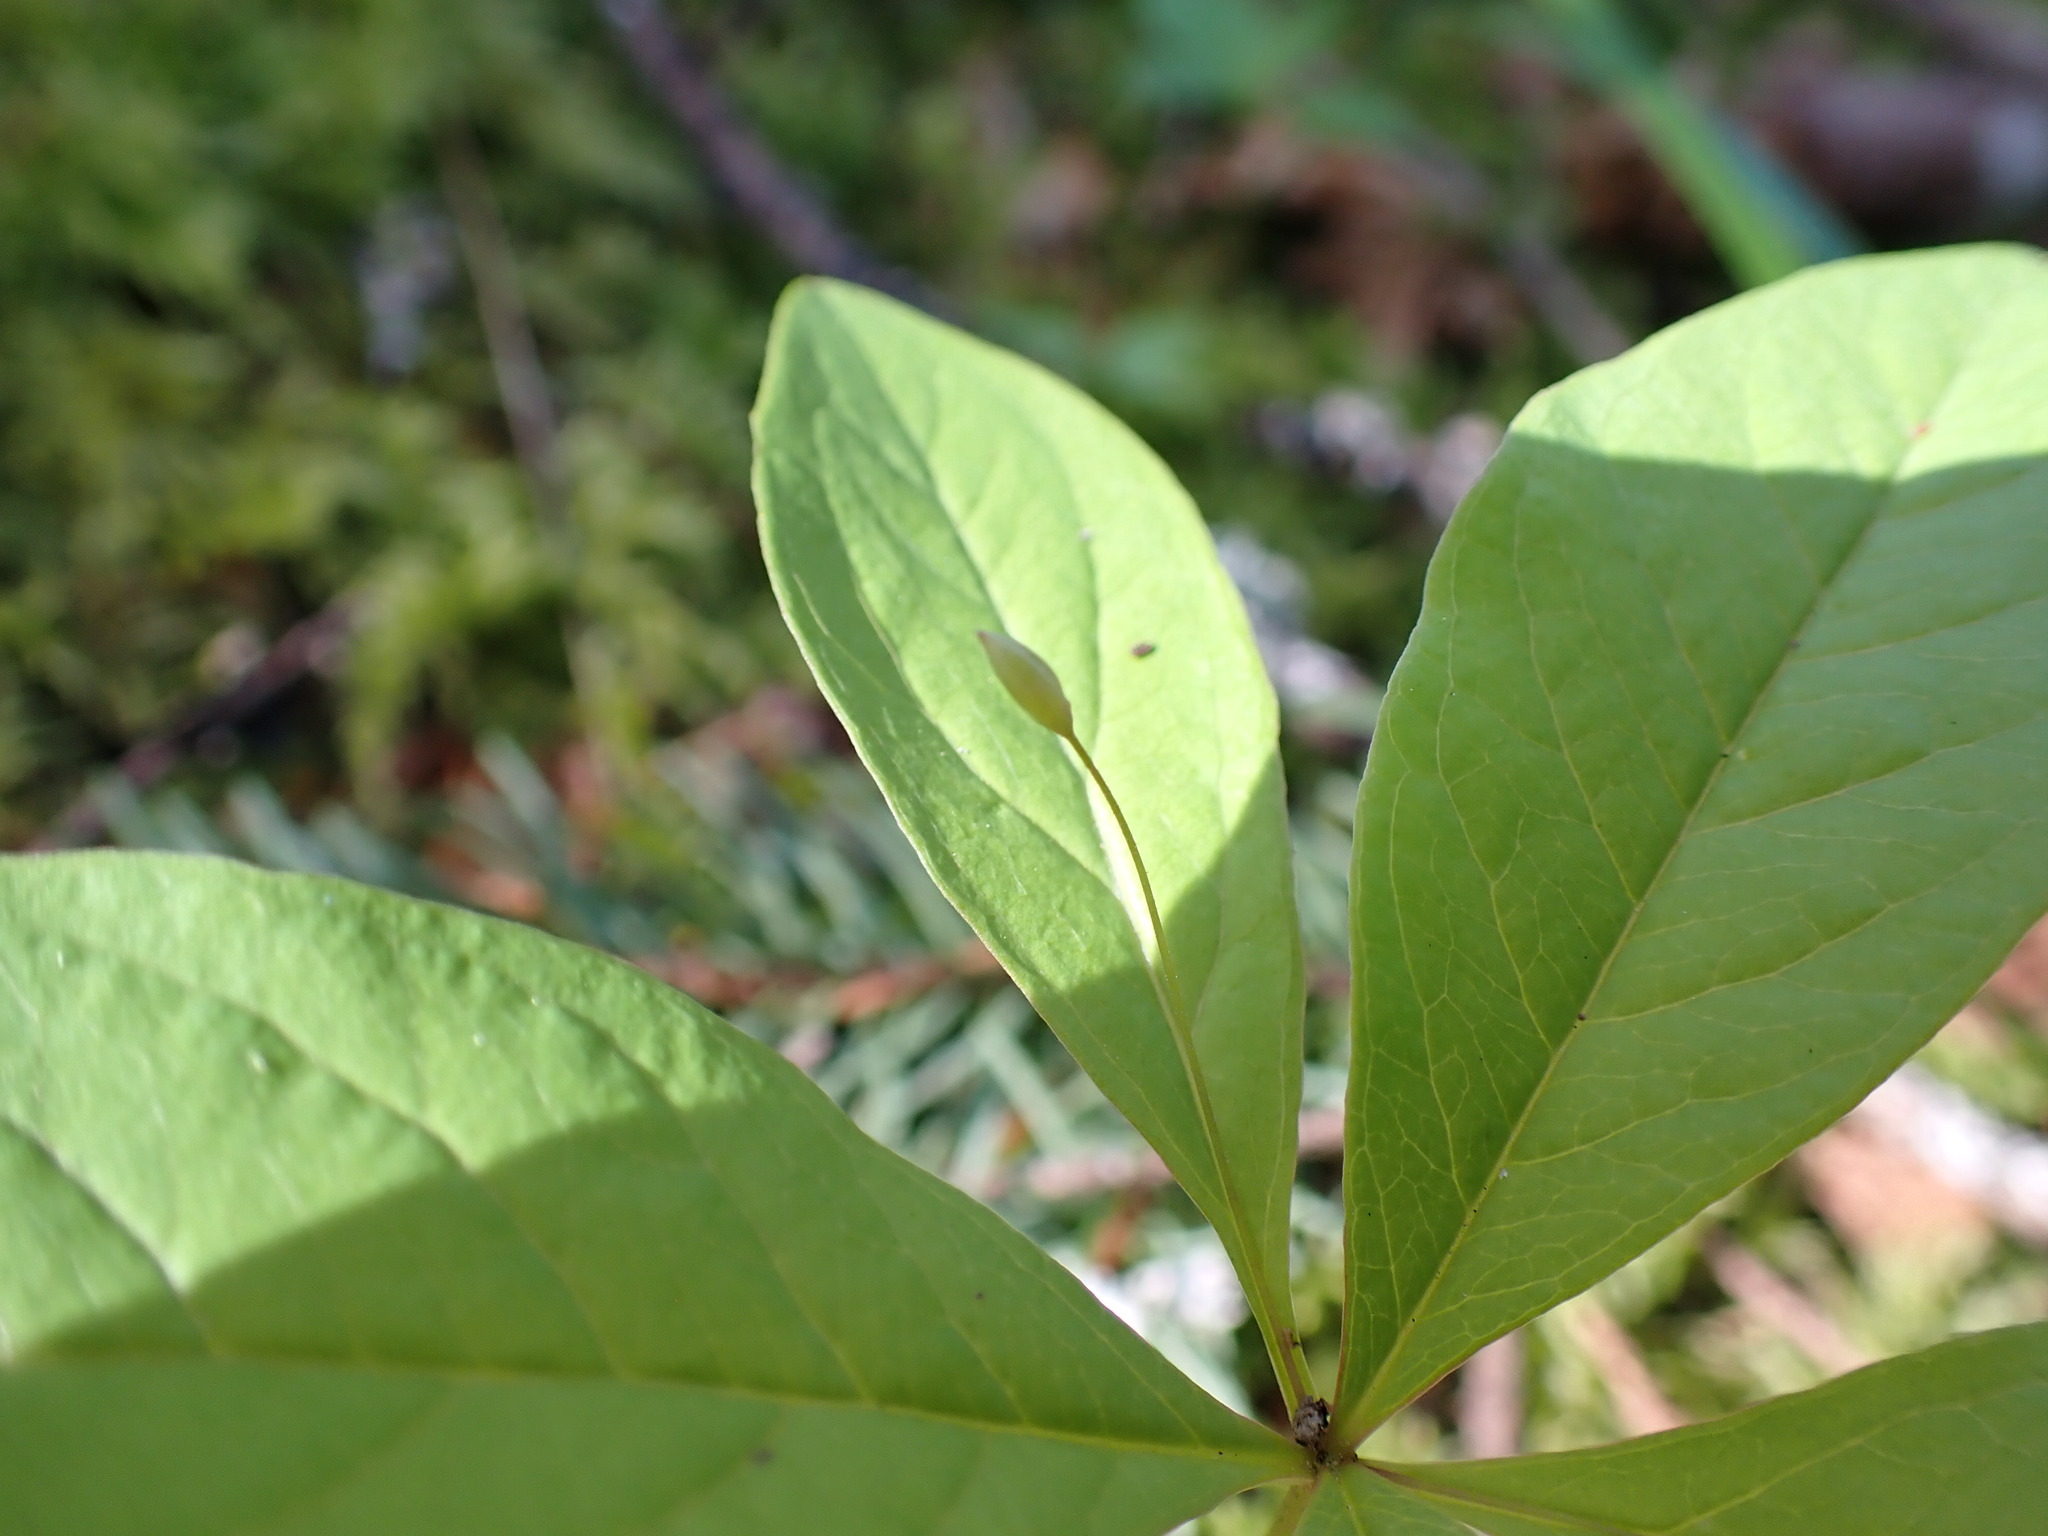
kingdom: Plantae
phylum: Tracheophyta
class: Magnoliopsida
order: Ericales
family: Primulaceae
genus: Lysimachia
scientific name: Lysimachia latifolia
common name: Pacific starflower
